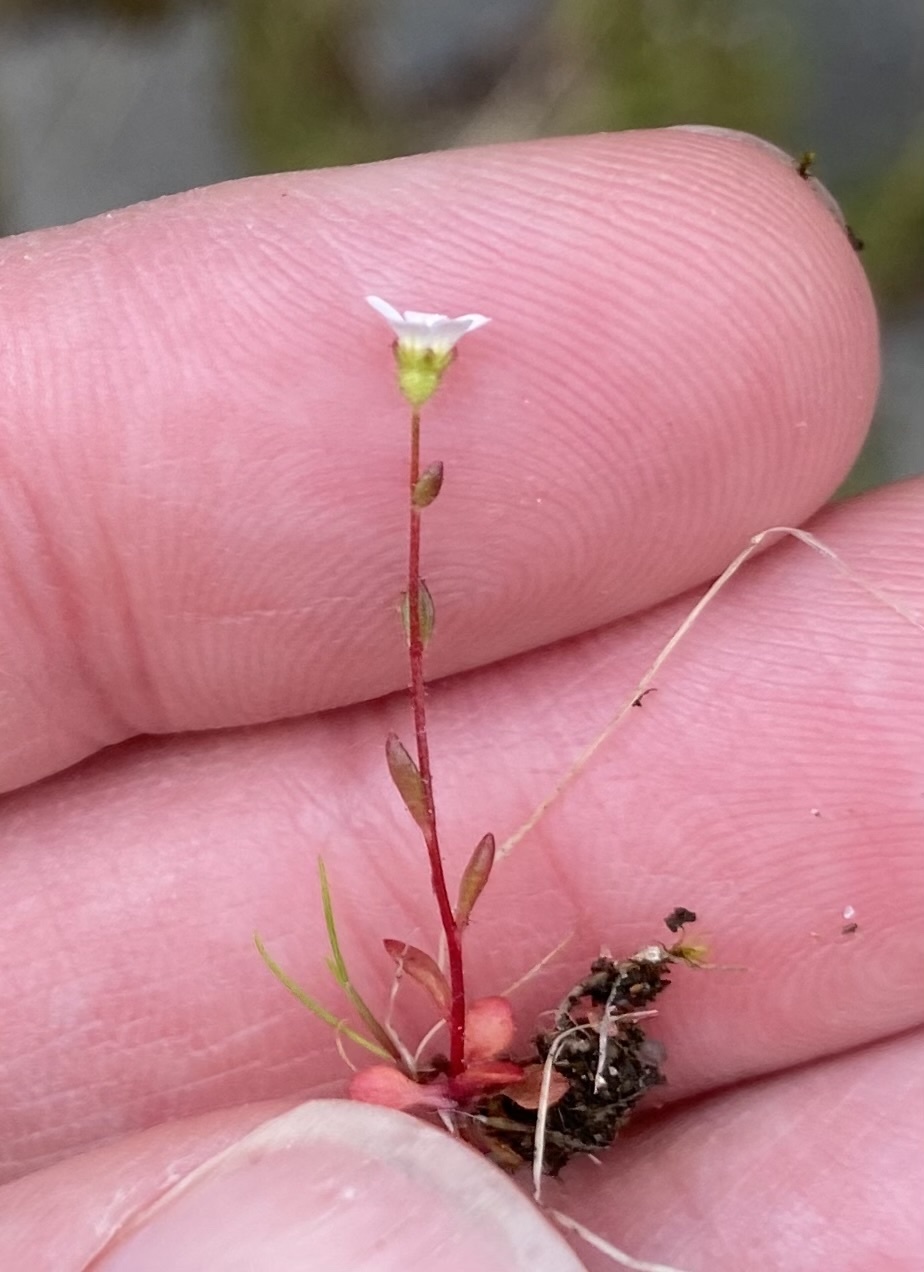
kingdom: Plantae
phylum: Tracheophyta
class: Magnoliopsida
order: Saxifragales
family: Saxifragaceae
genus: Saxifraga
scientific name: Saxifraga tridactylites
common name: Rue-leaved saxifrage
